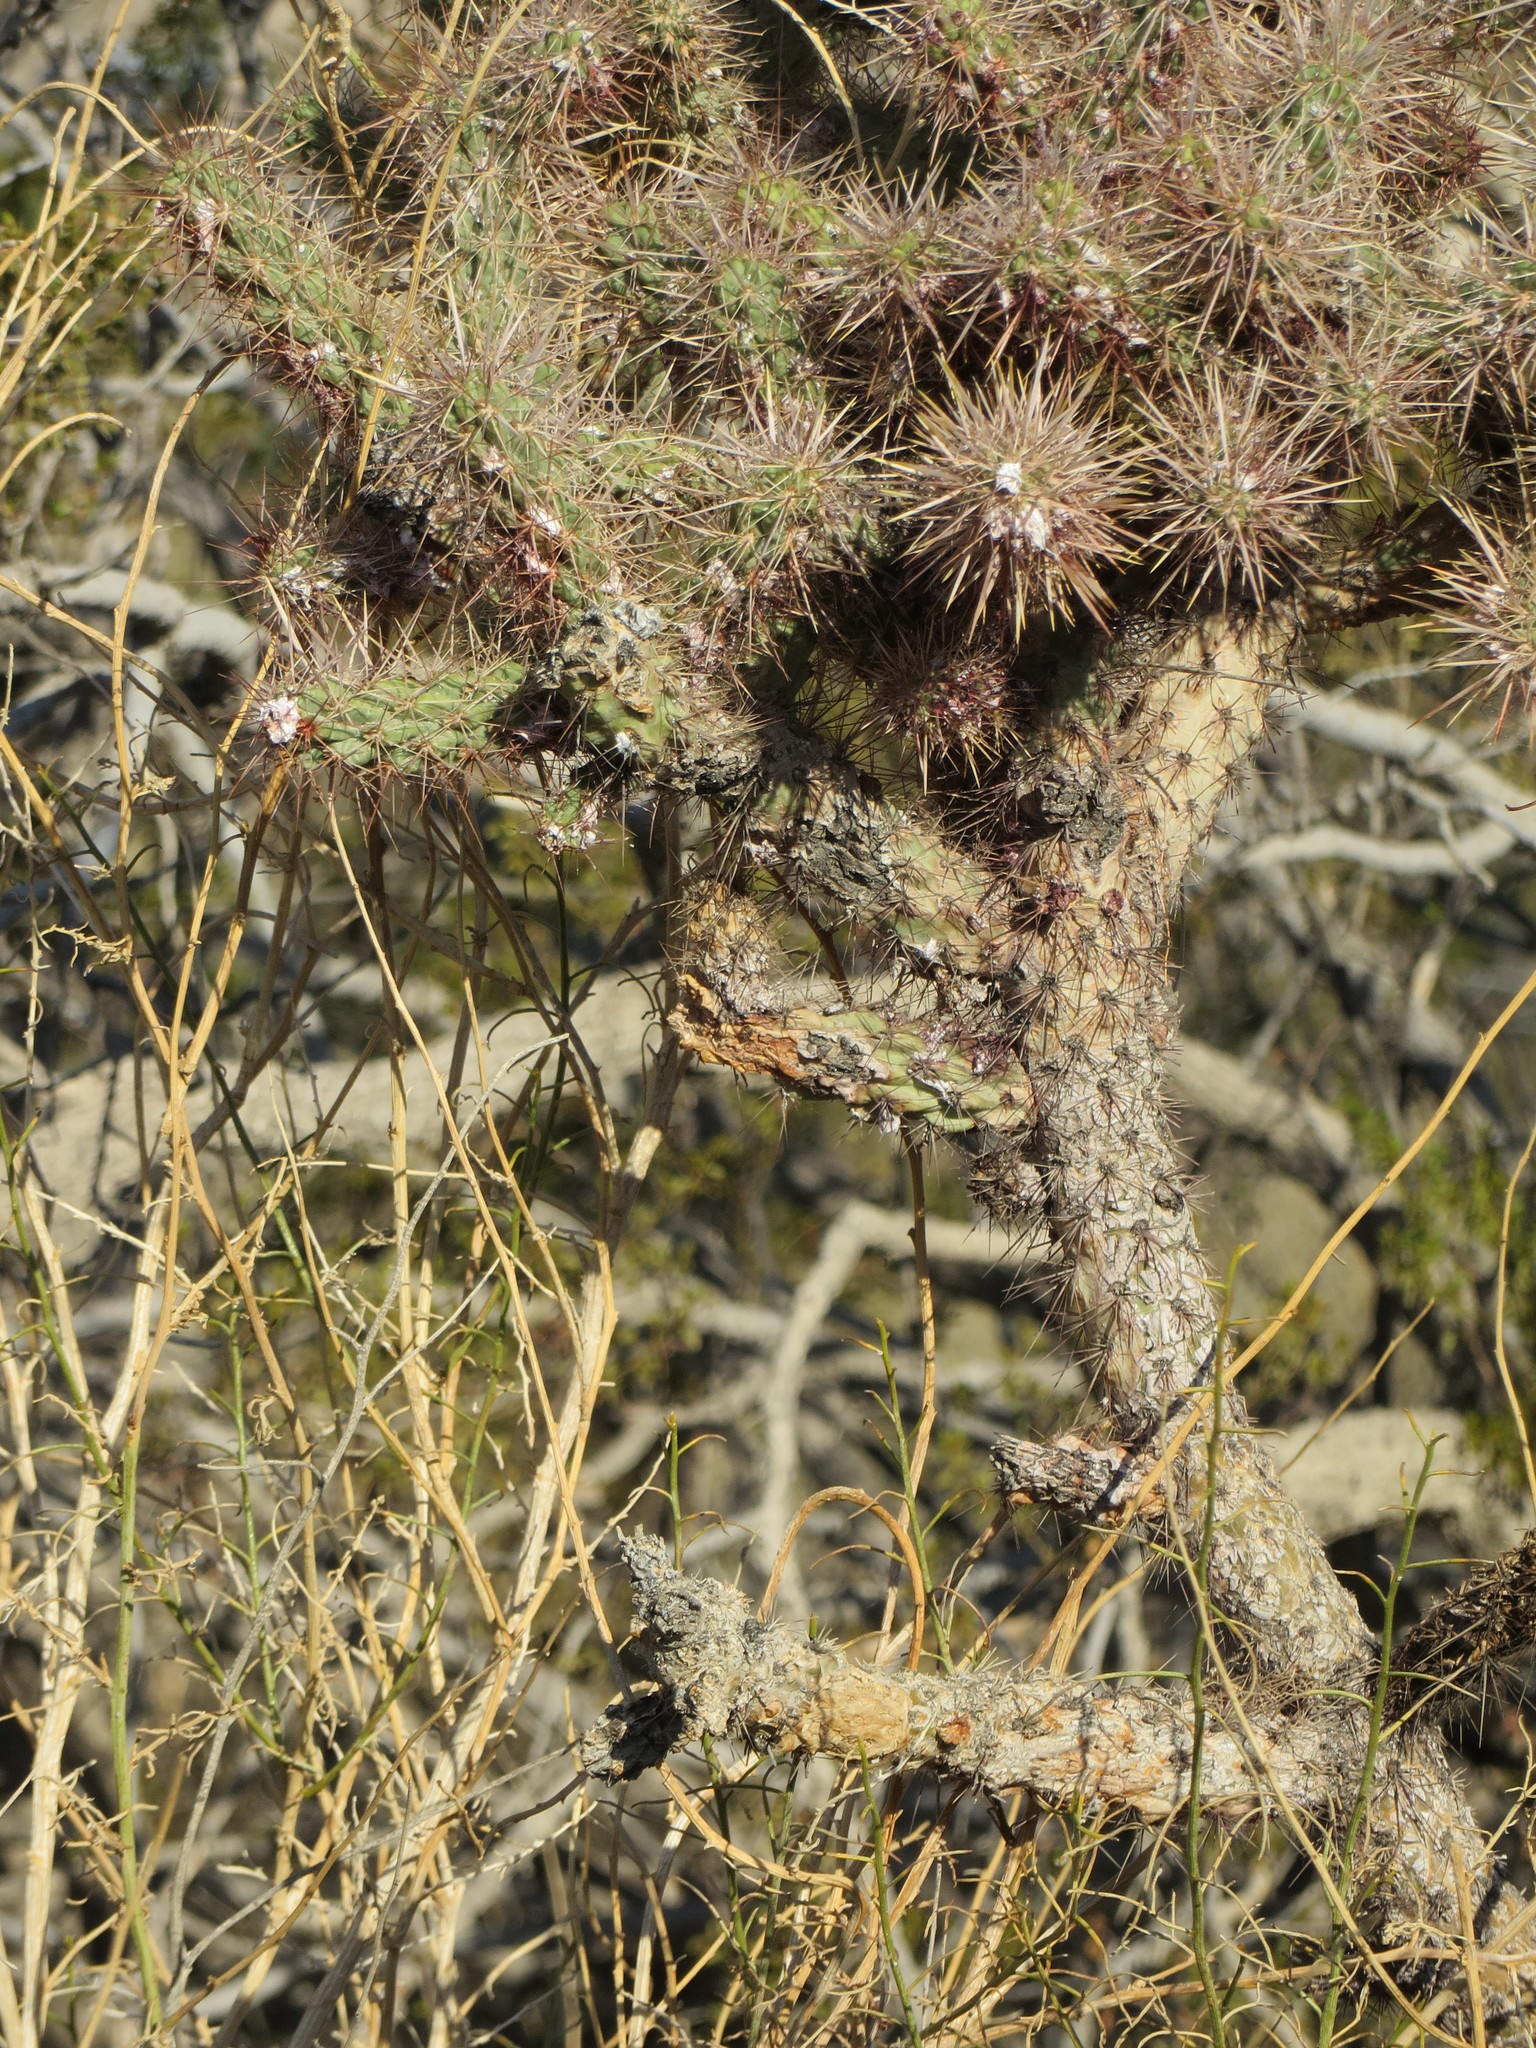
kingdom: Plantae
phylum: Tracheophyta
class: Magnoliopsida
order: Caryophyllales
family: Cactaceae
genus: Cylindropuntia
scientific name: Cylindropuntia echinocarpa
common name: Ground cholla
